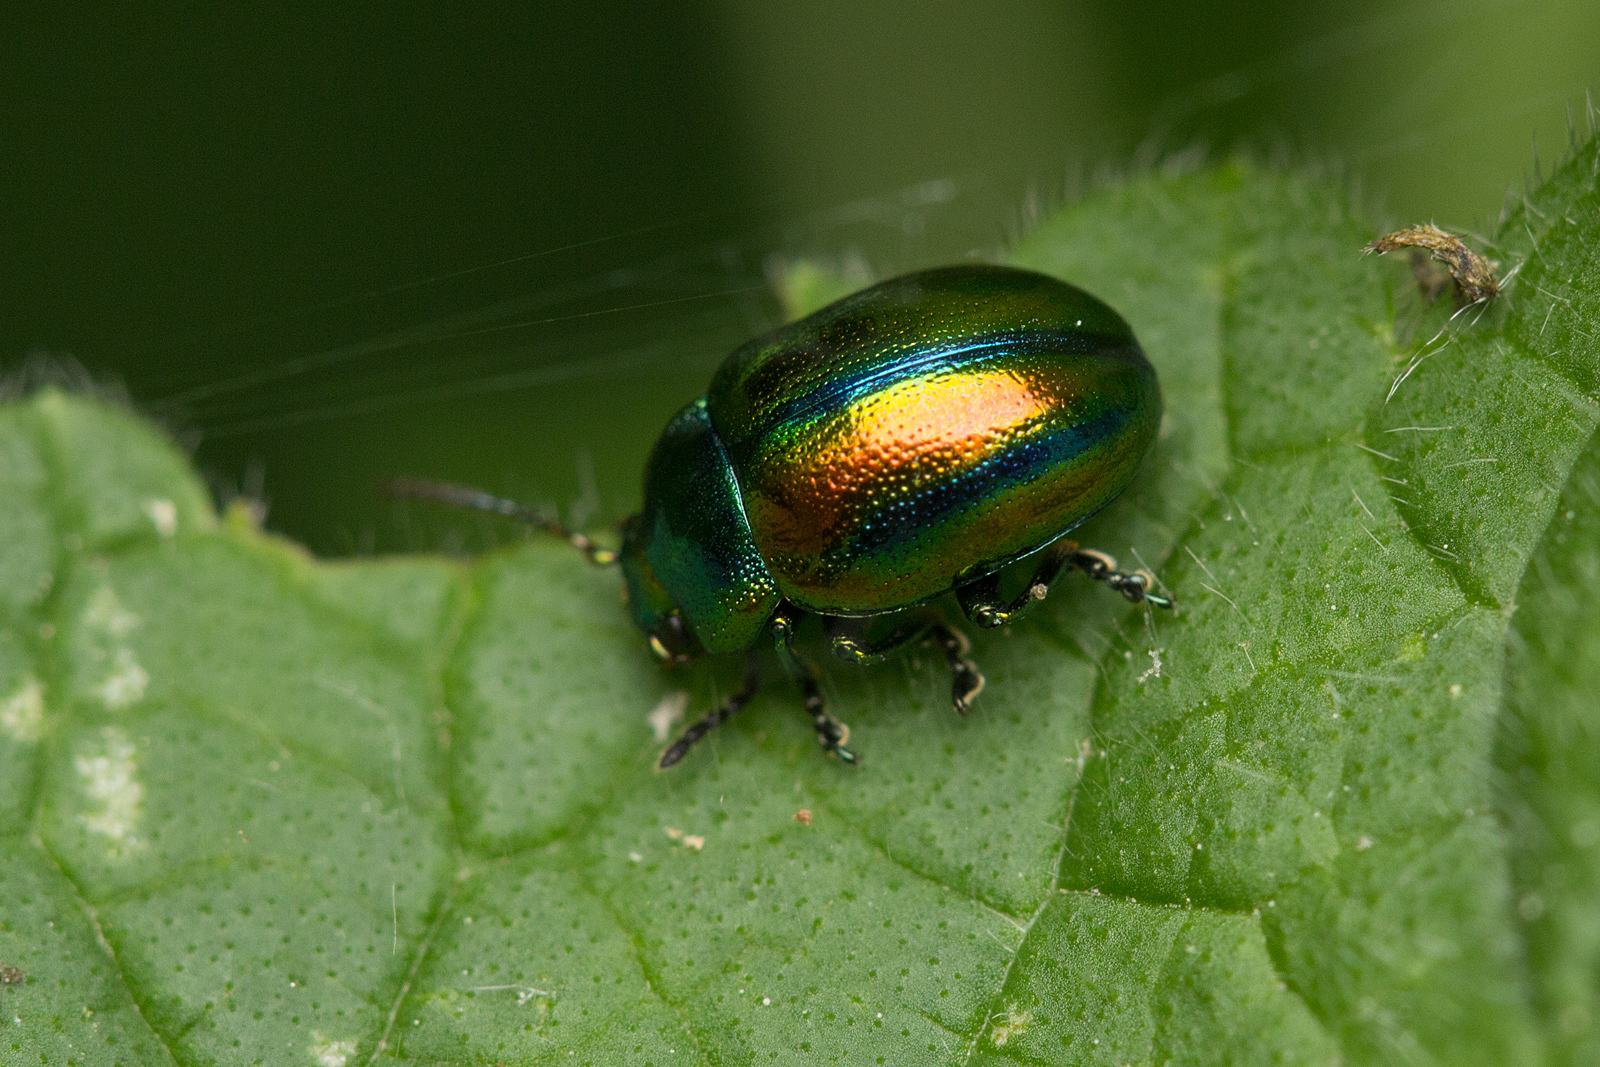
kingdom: Animalia
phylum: Arthropoda
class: Insecta
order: Coleoptera
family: Chrysomelidae
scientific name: Chrysomelidae
